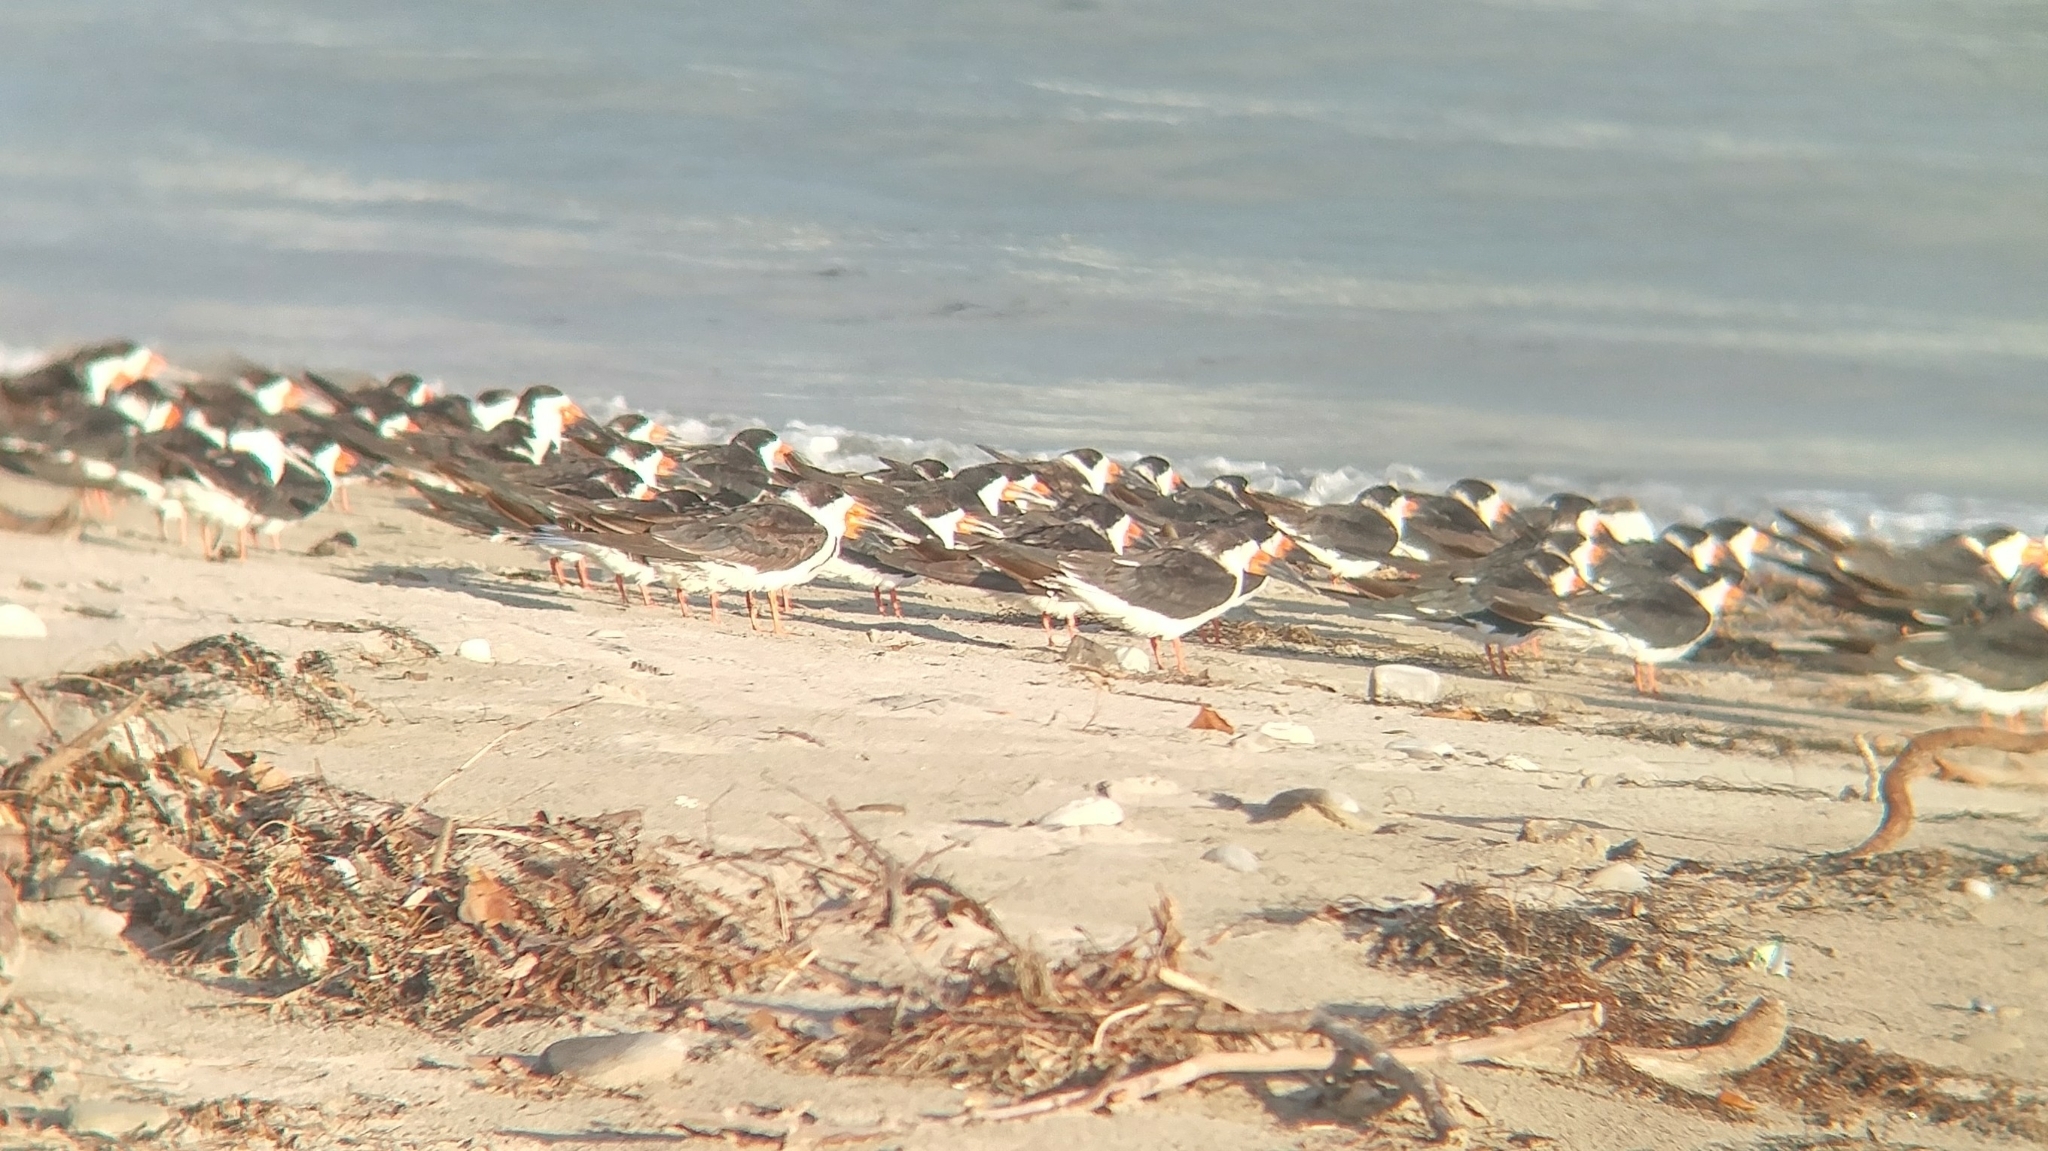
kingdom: Animalia
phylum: Chordata
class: Aves
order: Charadriiformes
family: Laridae
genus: Rynchops
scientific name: Rynchops niger
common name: Black skimmer
